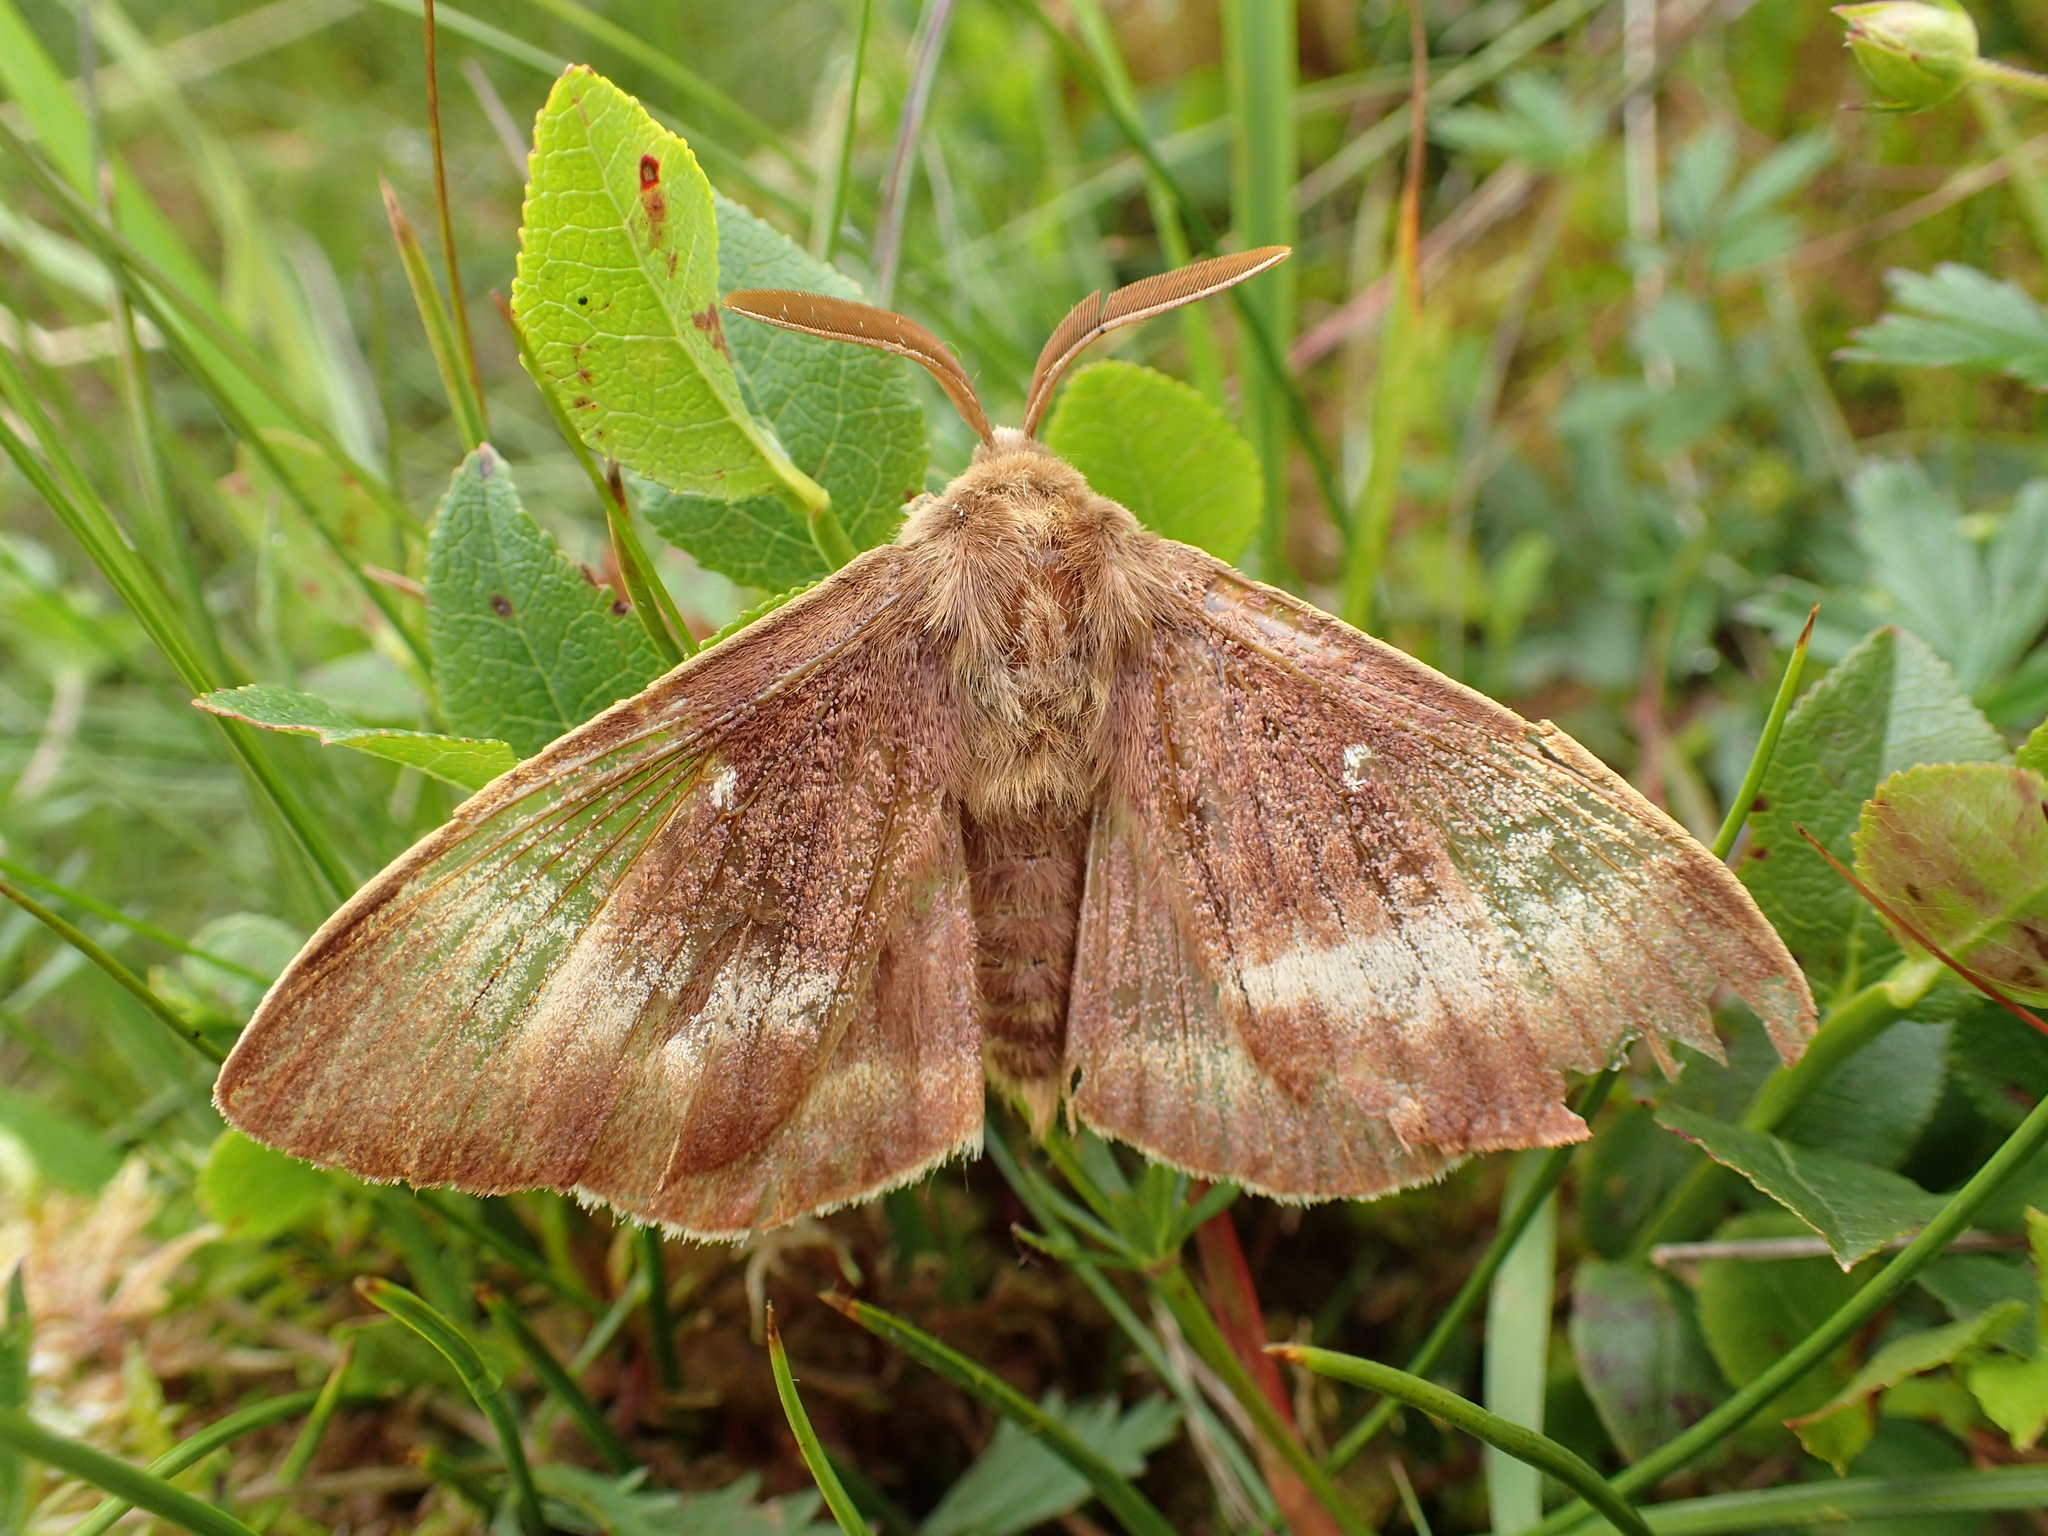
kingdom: Animalia
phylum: Arthropoda
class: Insecta
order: Lepidoptera
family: Lasiocampidae
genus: Lasiocampa
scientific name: Lasiocampa quercus
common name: Oak eggar
